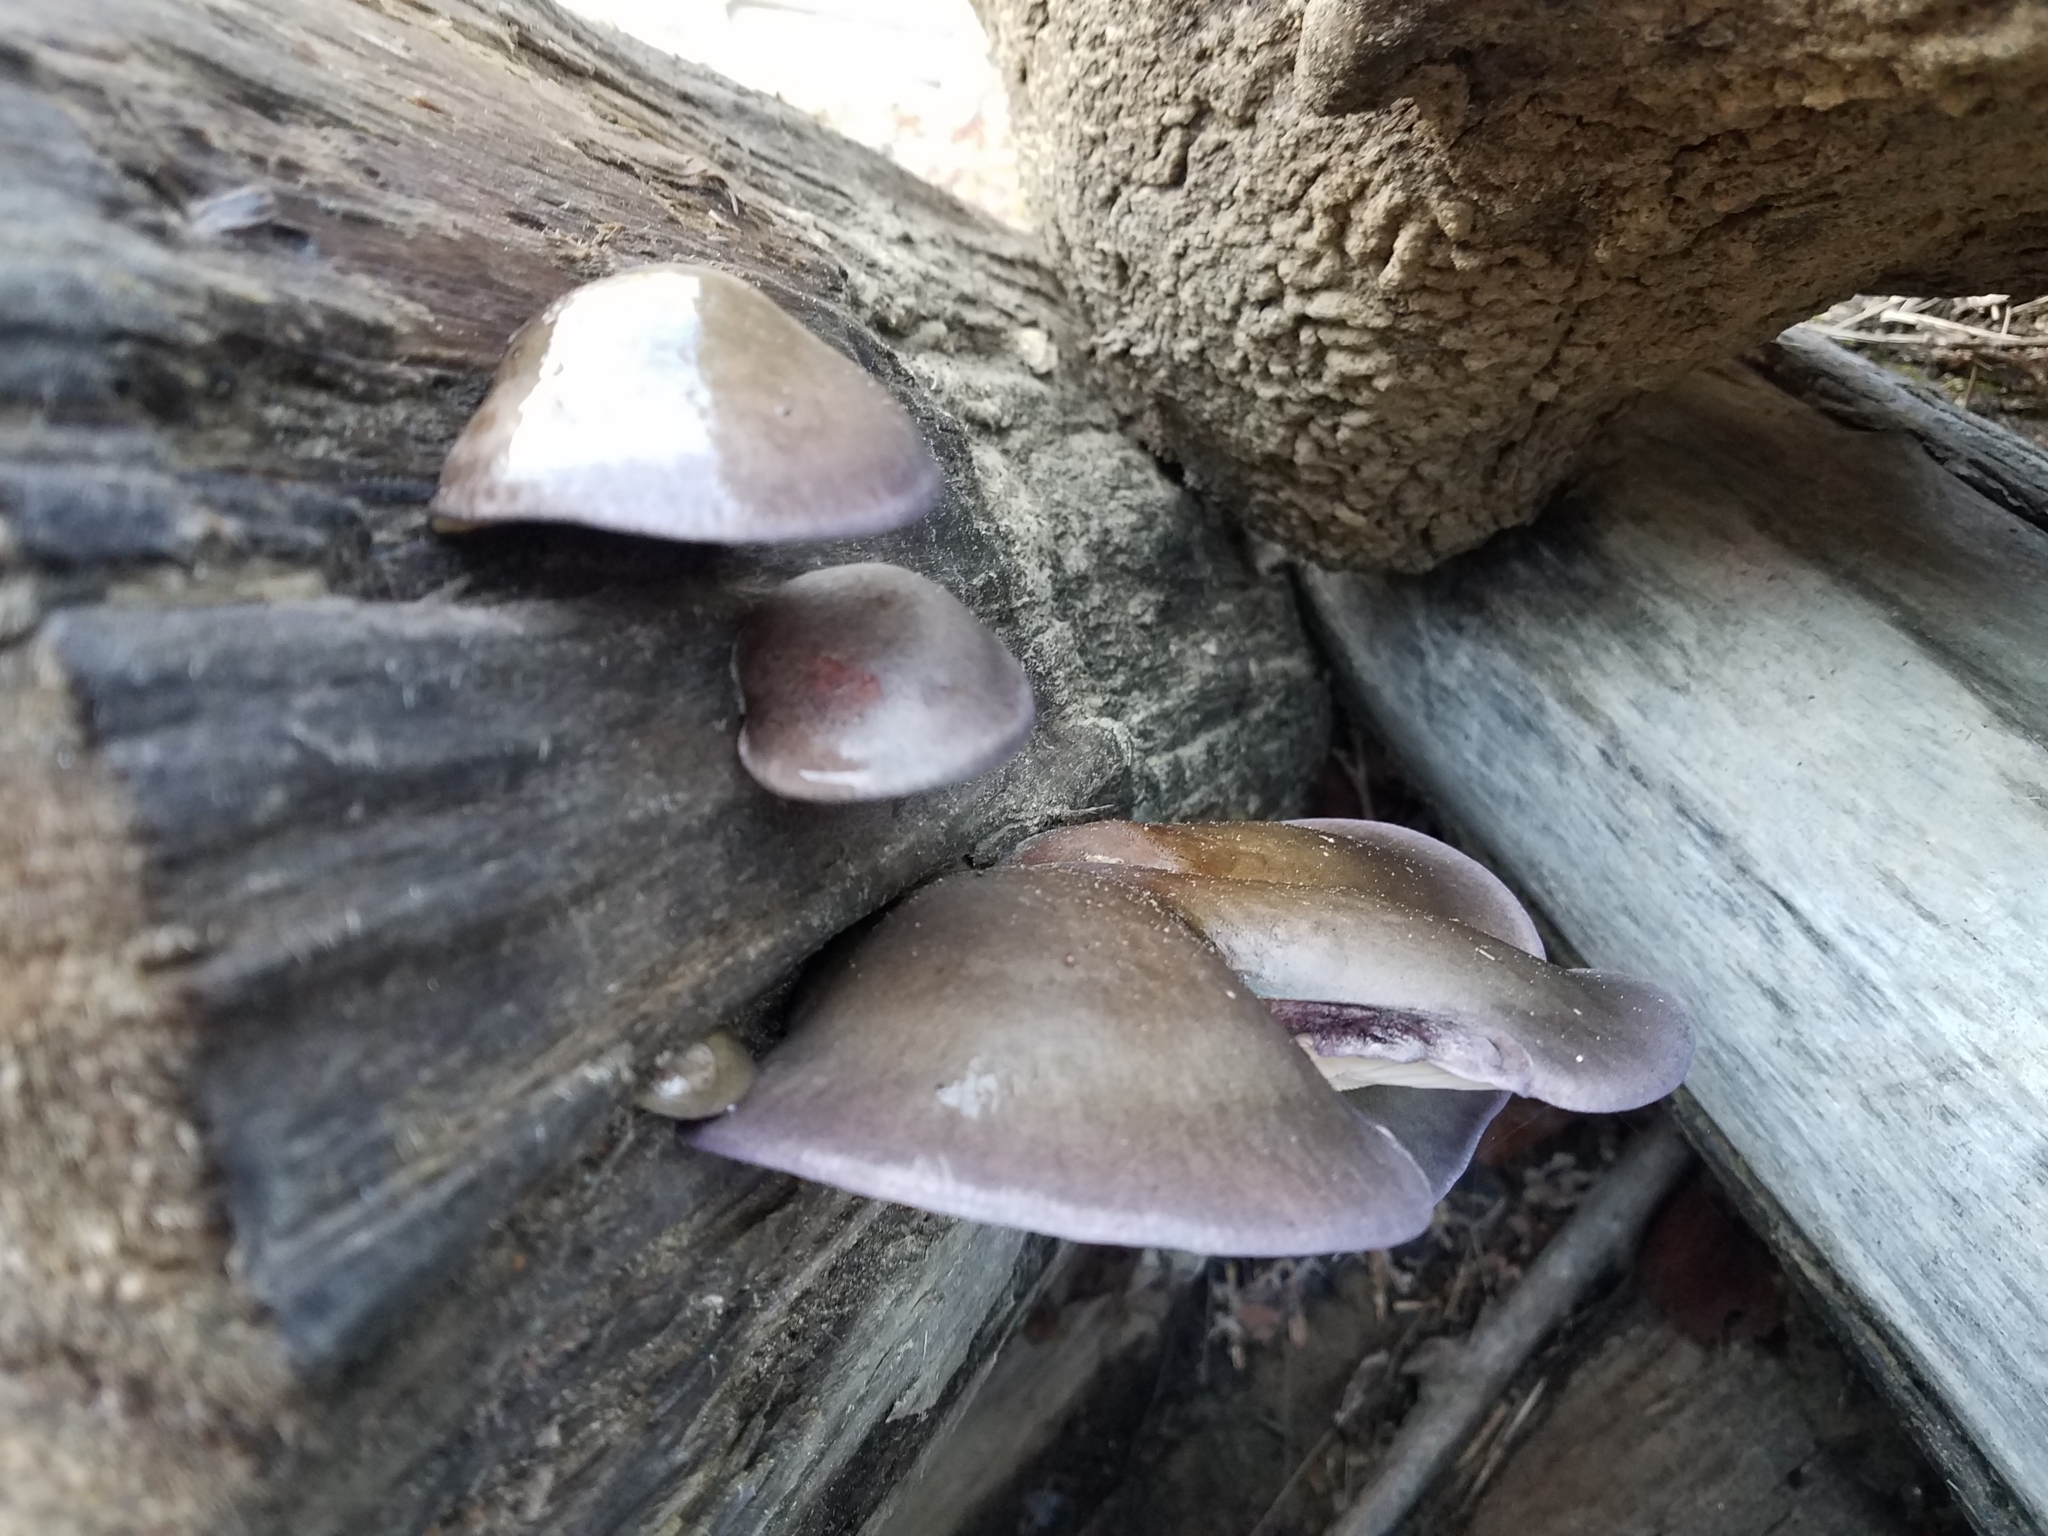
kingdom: Fungi
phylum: Basidiomycota
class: Agaricomycetes
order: Agaricales
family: Sarcomyxaceae
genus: Sarcomyxa
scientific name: Sarcomyxa serotina
